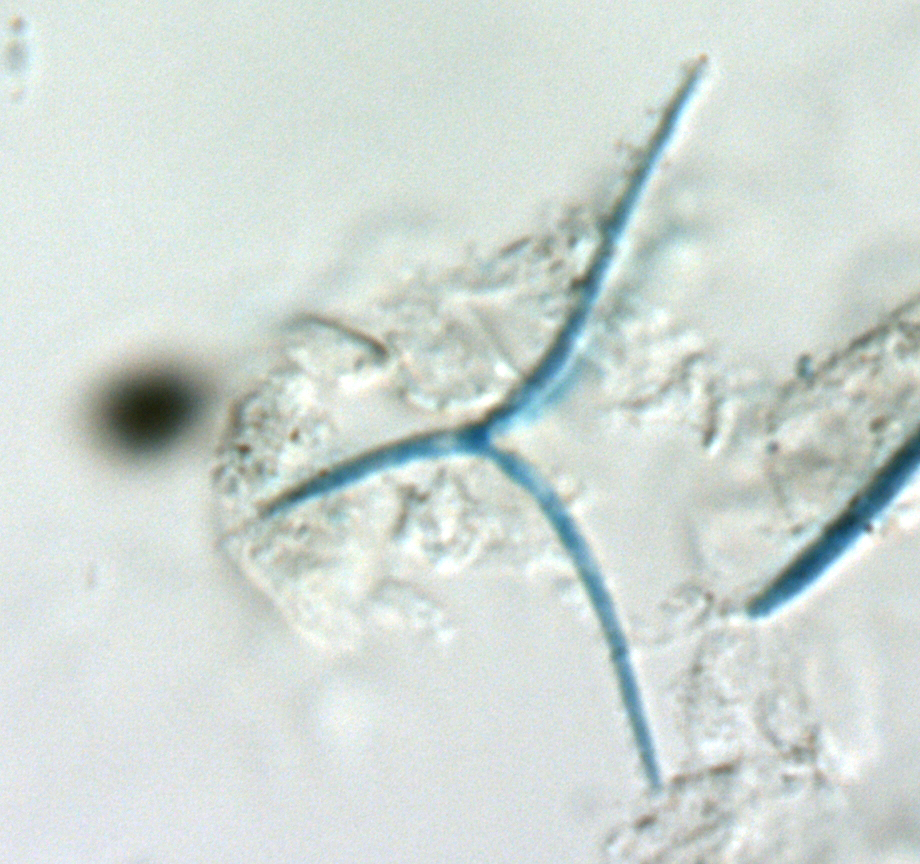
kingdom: Fungi
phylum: Ascomycota
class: Leotiomycetes
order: Leotiales
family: Leotiaceae
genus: Alatospora
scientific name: Alatospora acuminata
